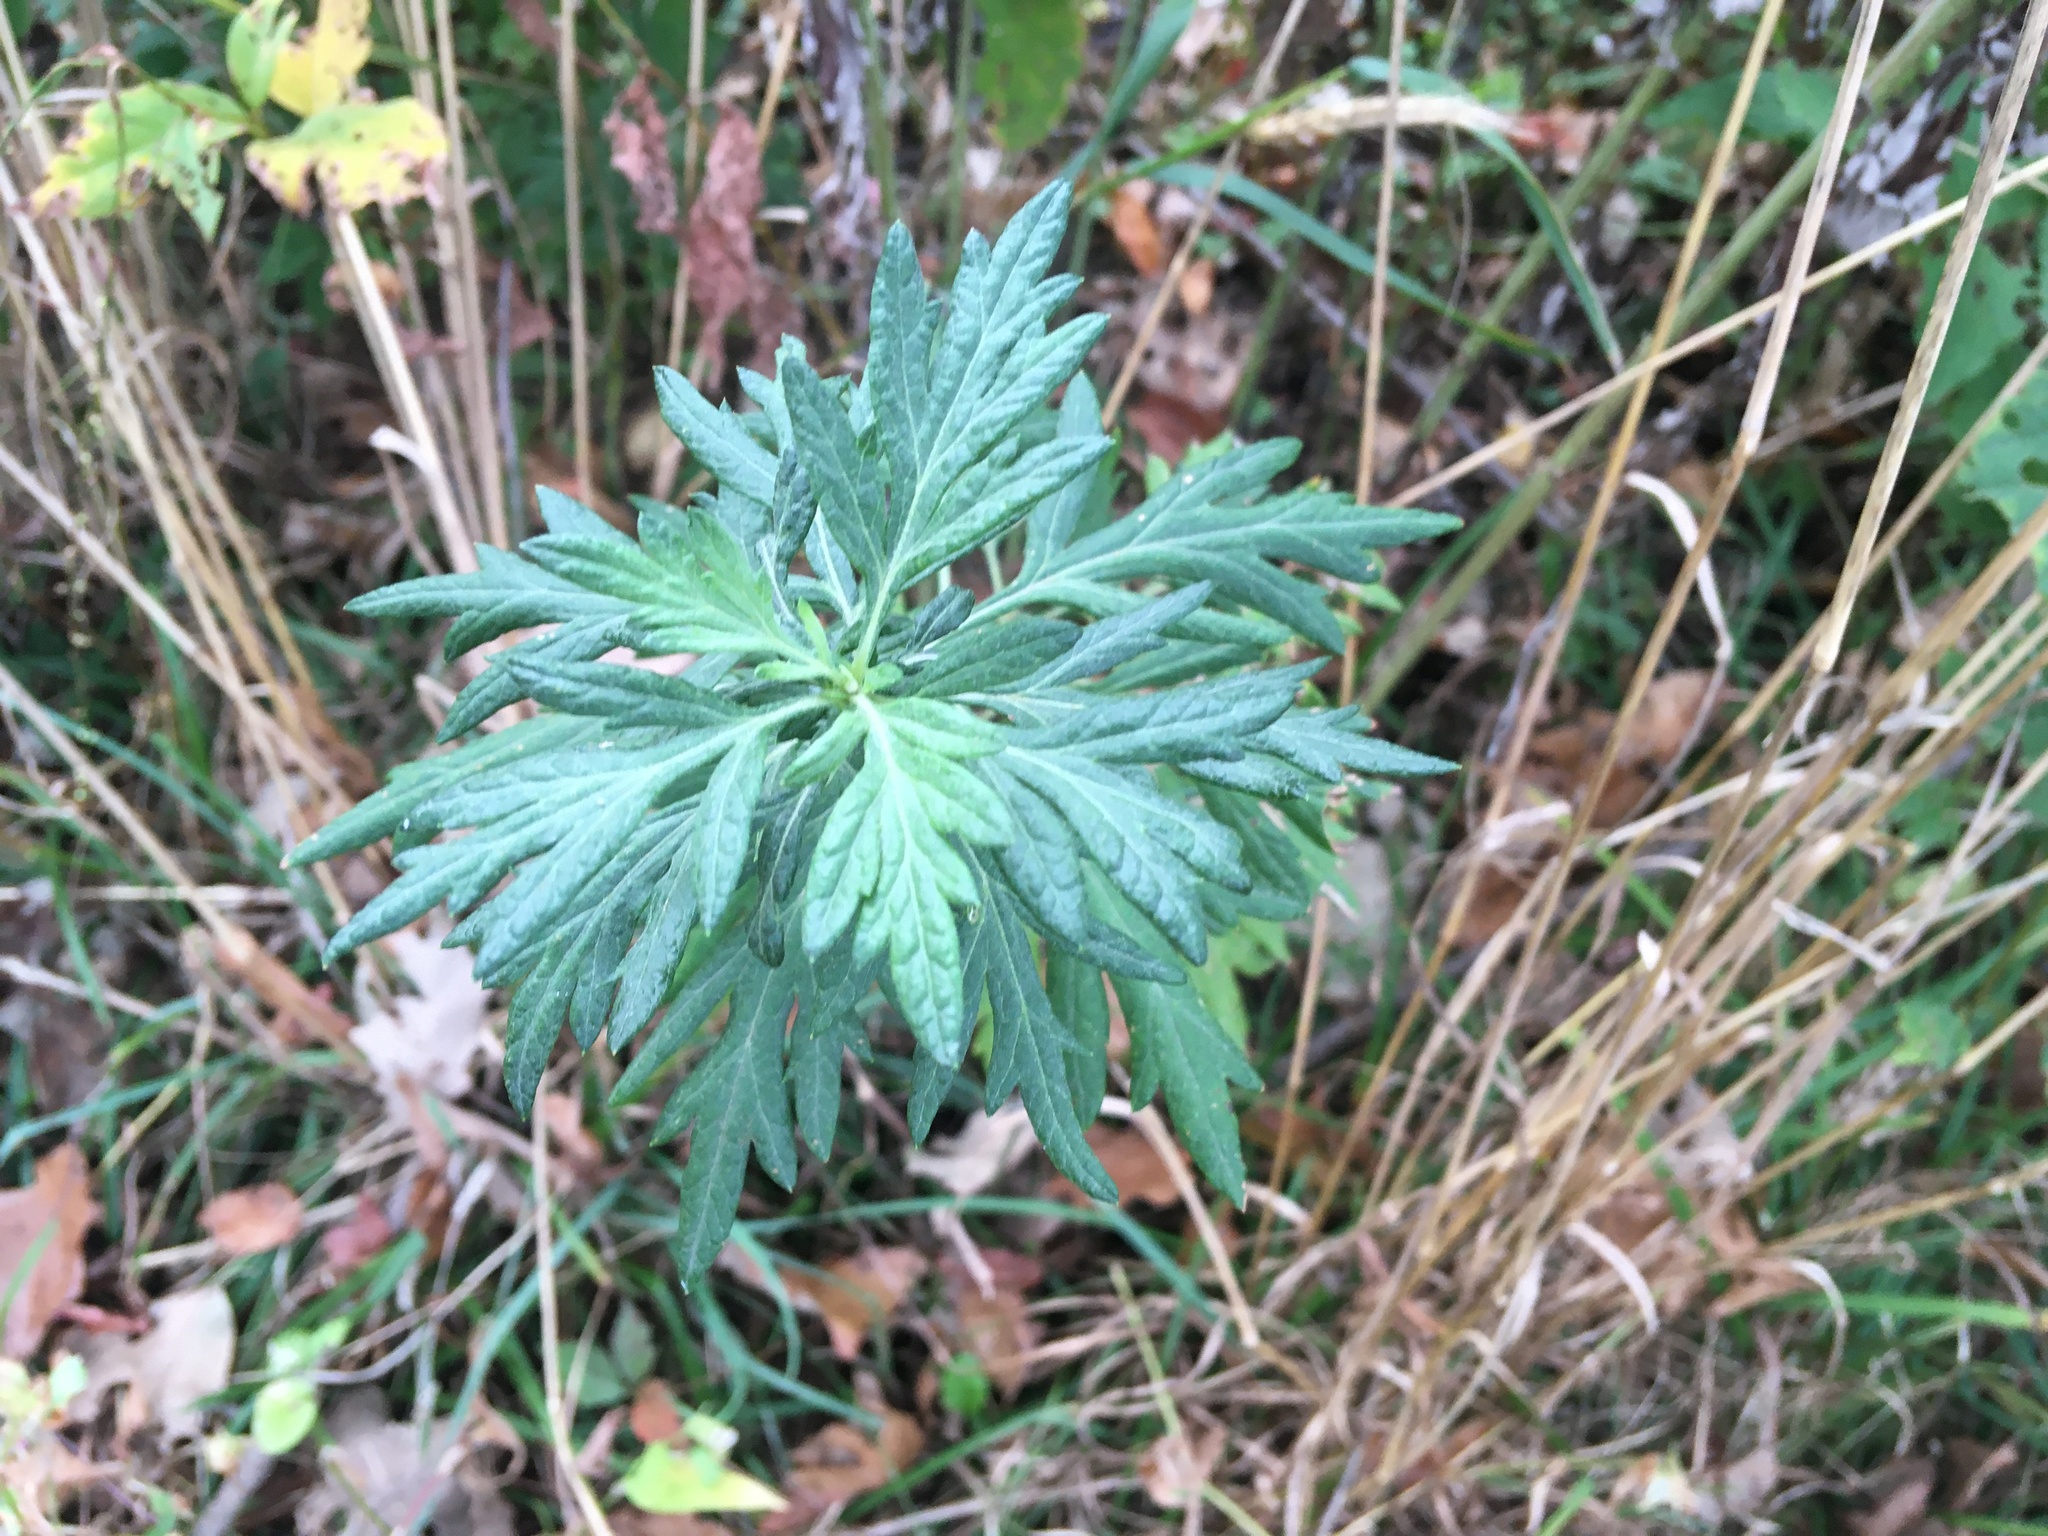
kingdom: Plantae
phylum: Tracheophyta
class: Magnoliopsida
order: Asterales
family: Asteraceae
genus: Artemisia
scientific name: Artemisia vulgaris
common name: Mugwort
